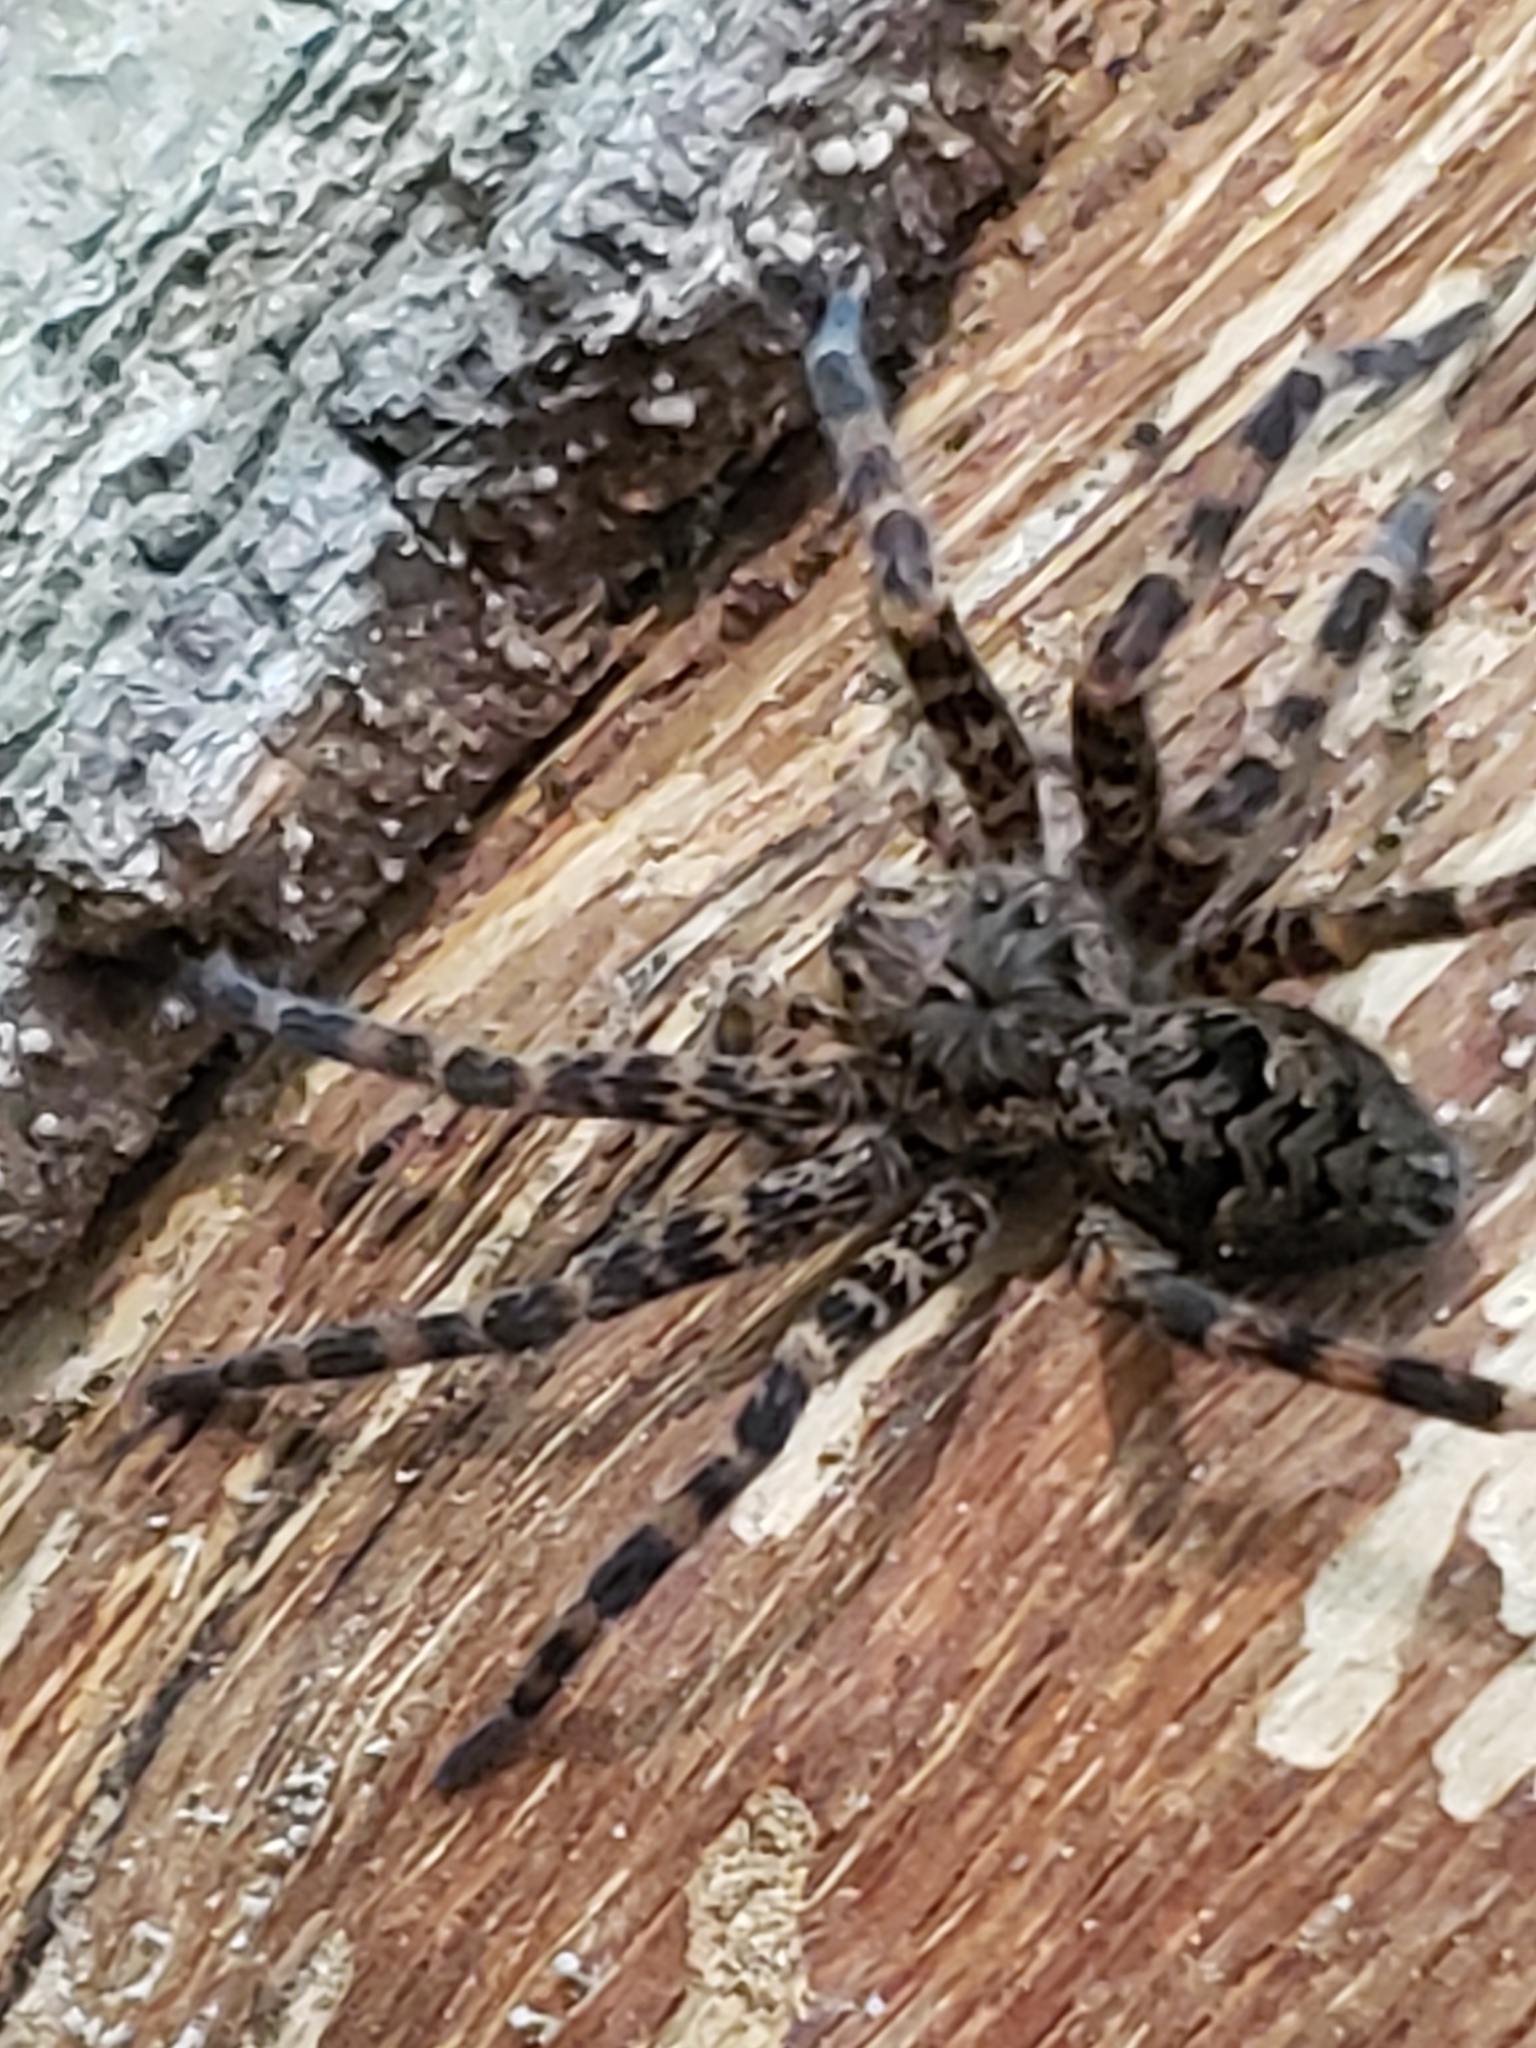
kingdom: Animalia
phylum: Arthropoda
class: Arachnida
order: Araneae
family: Pisauridae
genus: Dolomedes
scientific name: Dolomedes tenebrosus
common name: Dark fishing spider
